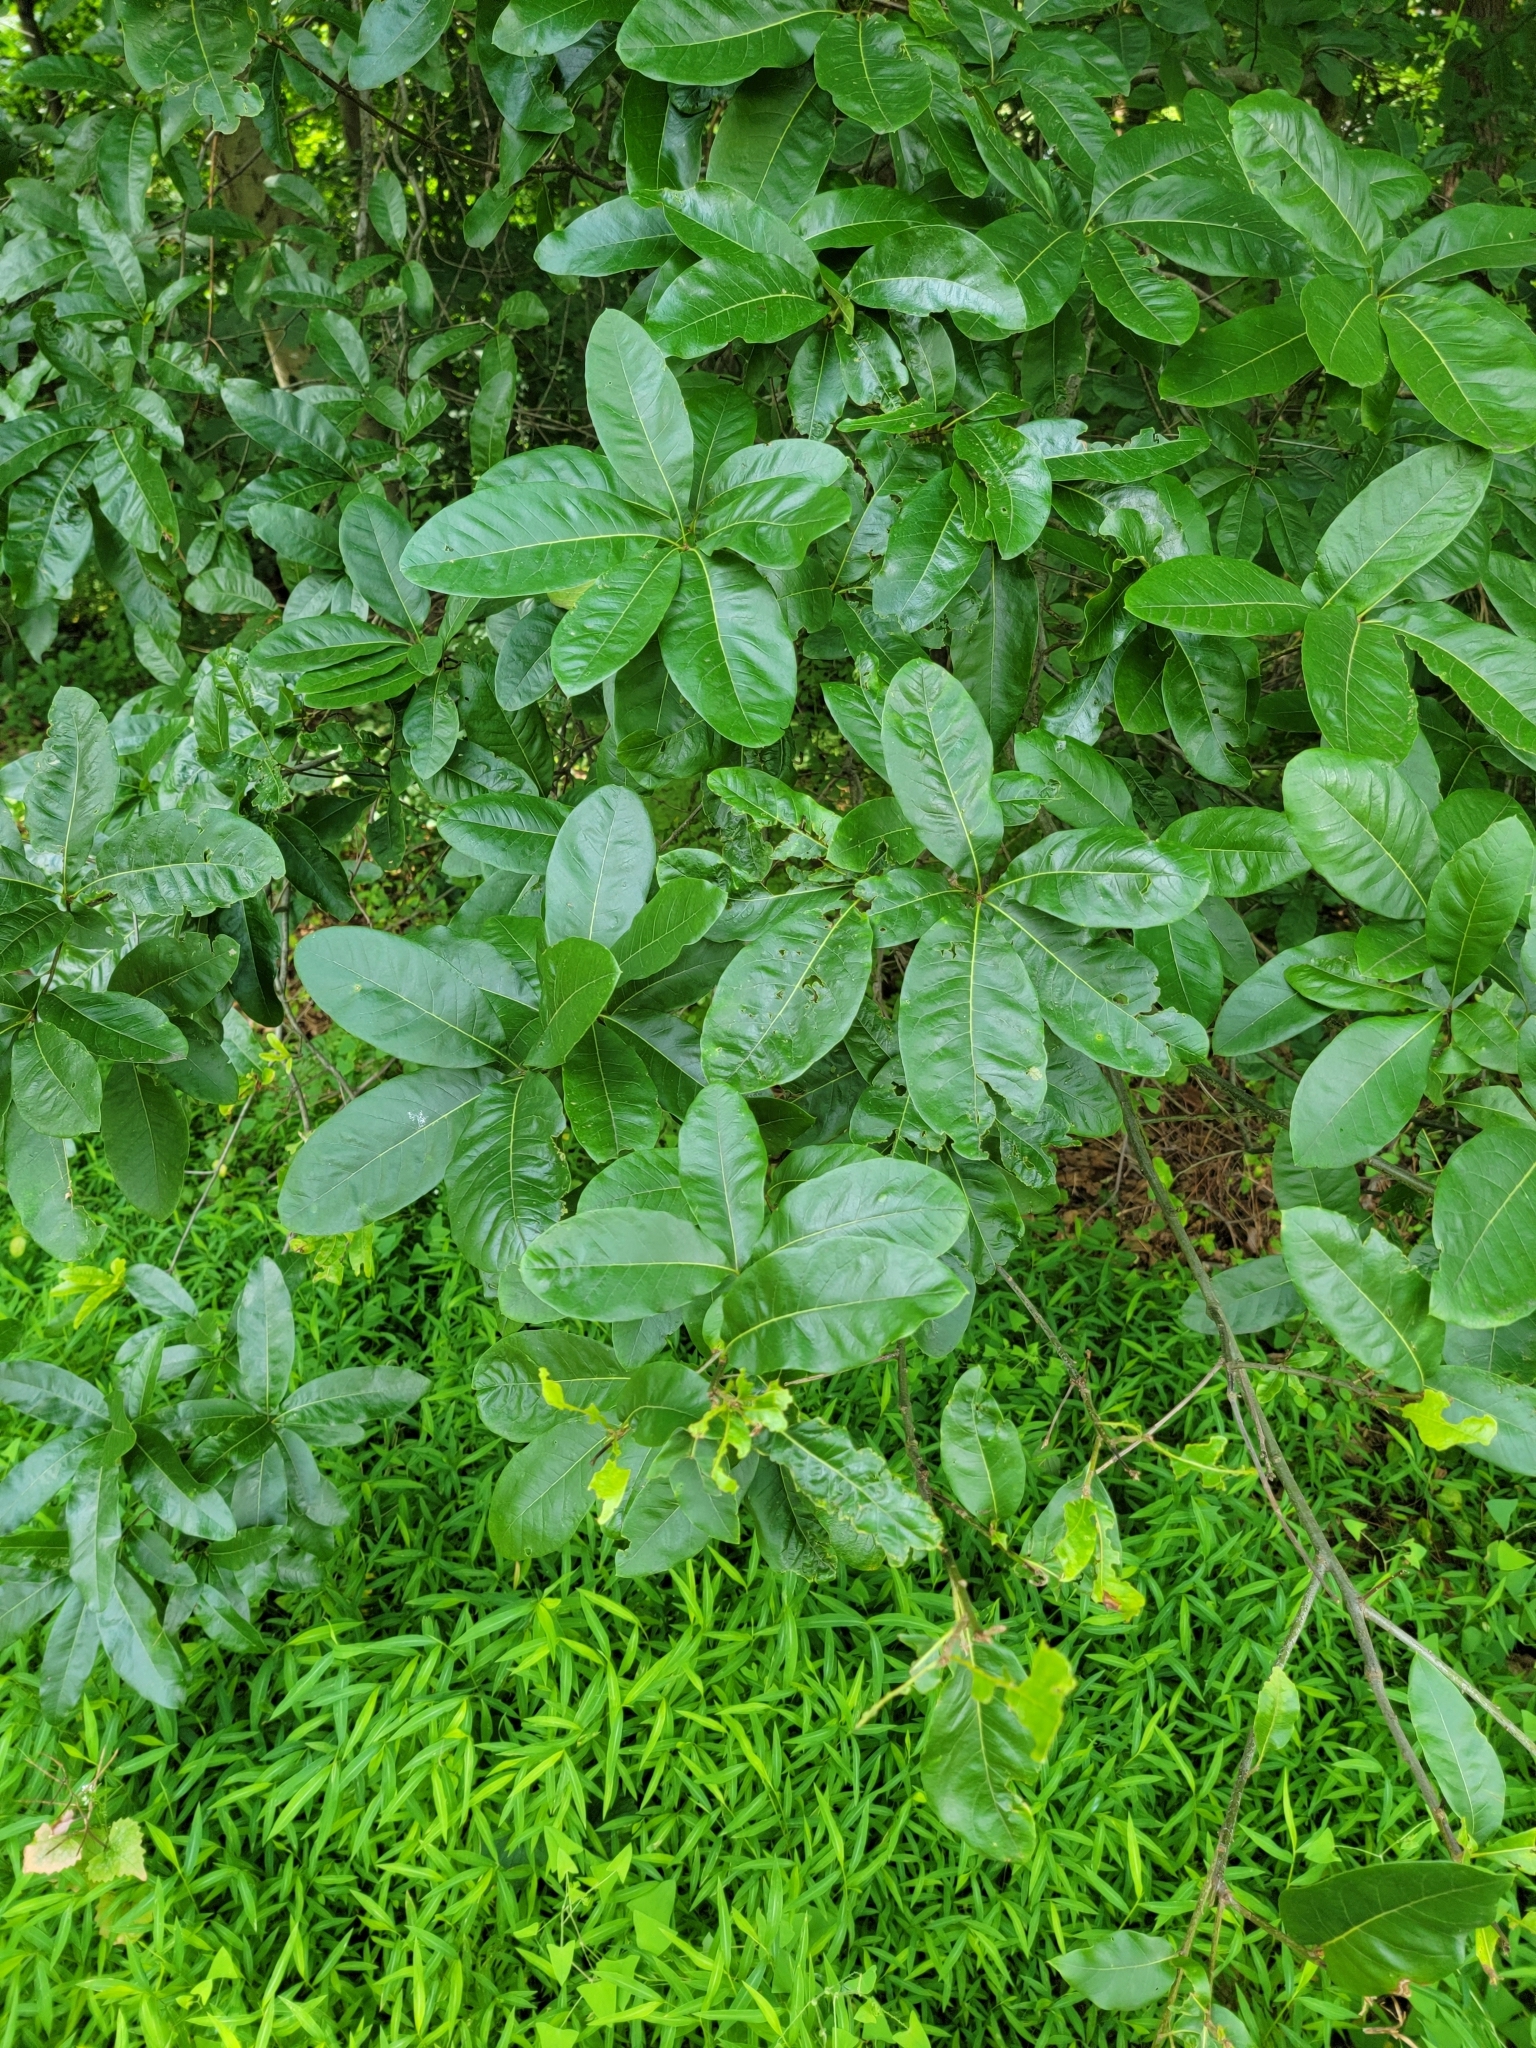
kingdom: Plantae
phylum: Tracheophyta
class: Magnoliopsida
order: Fagales
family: Fagaceae
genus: Quercus
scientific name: Quercus imbricaria
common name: Shingle oak
